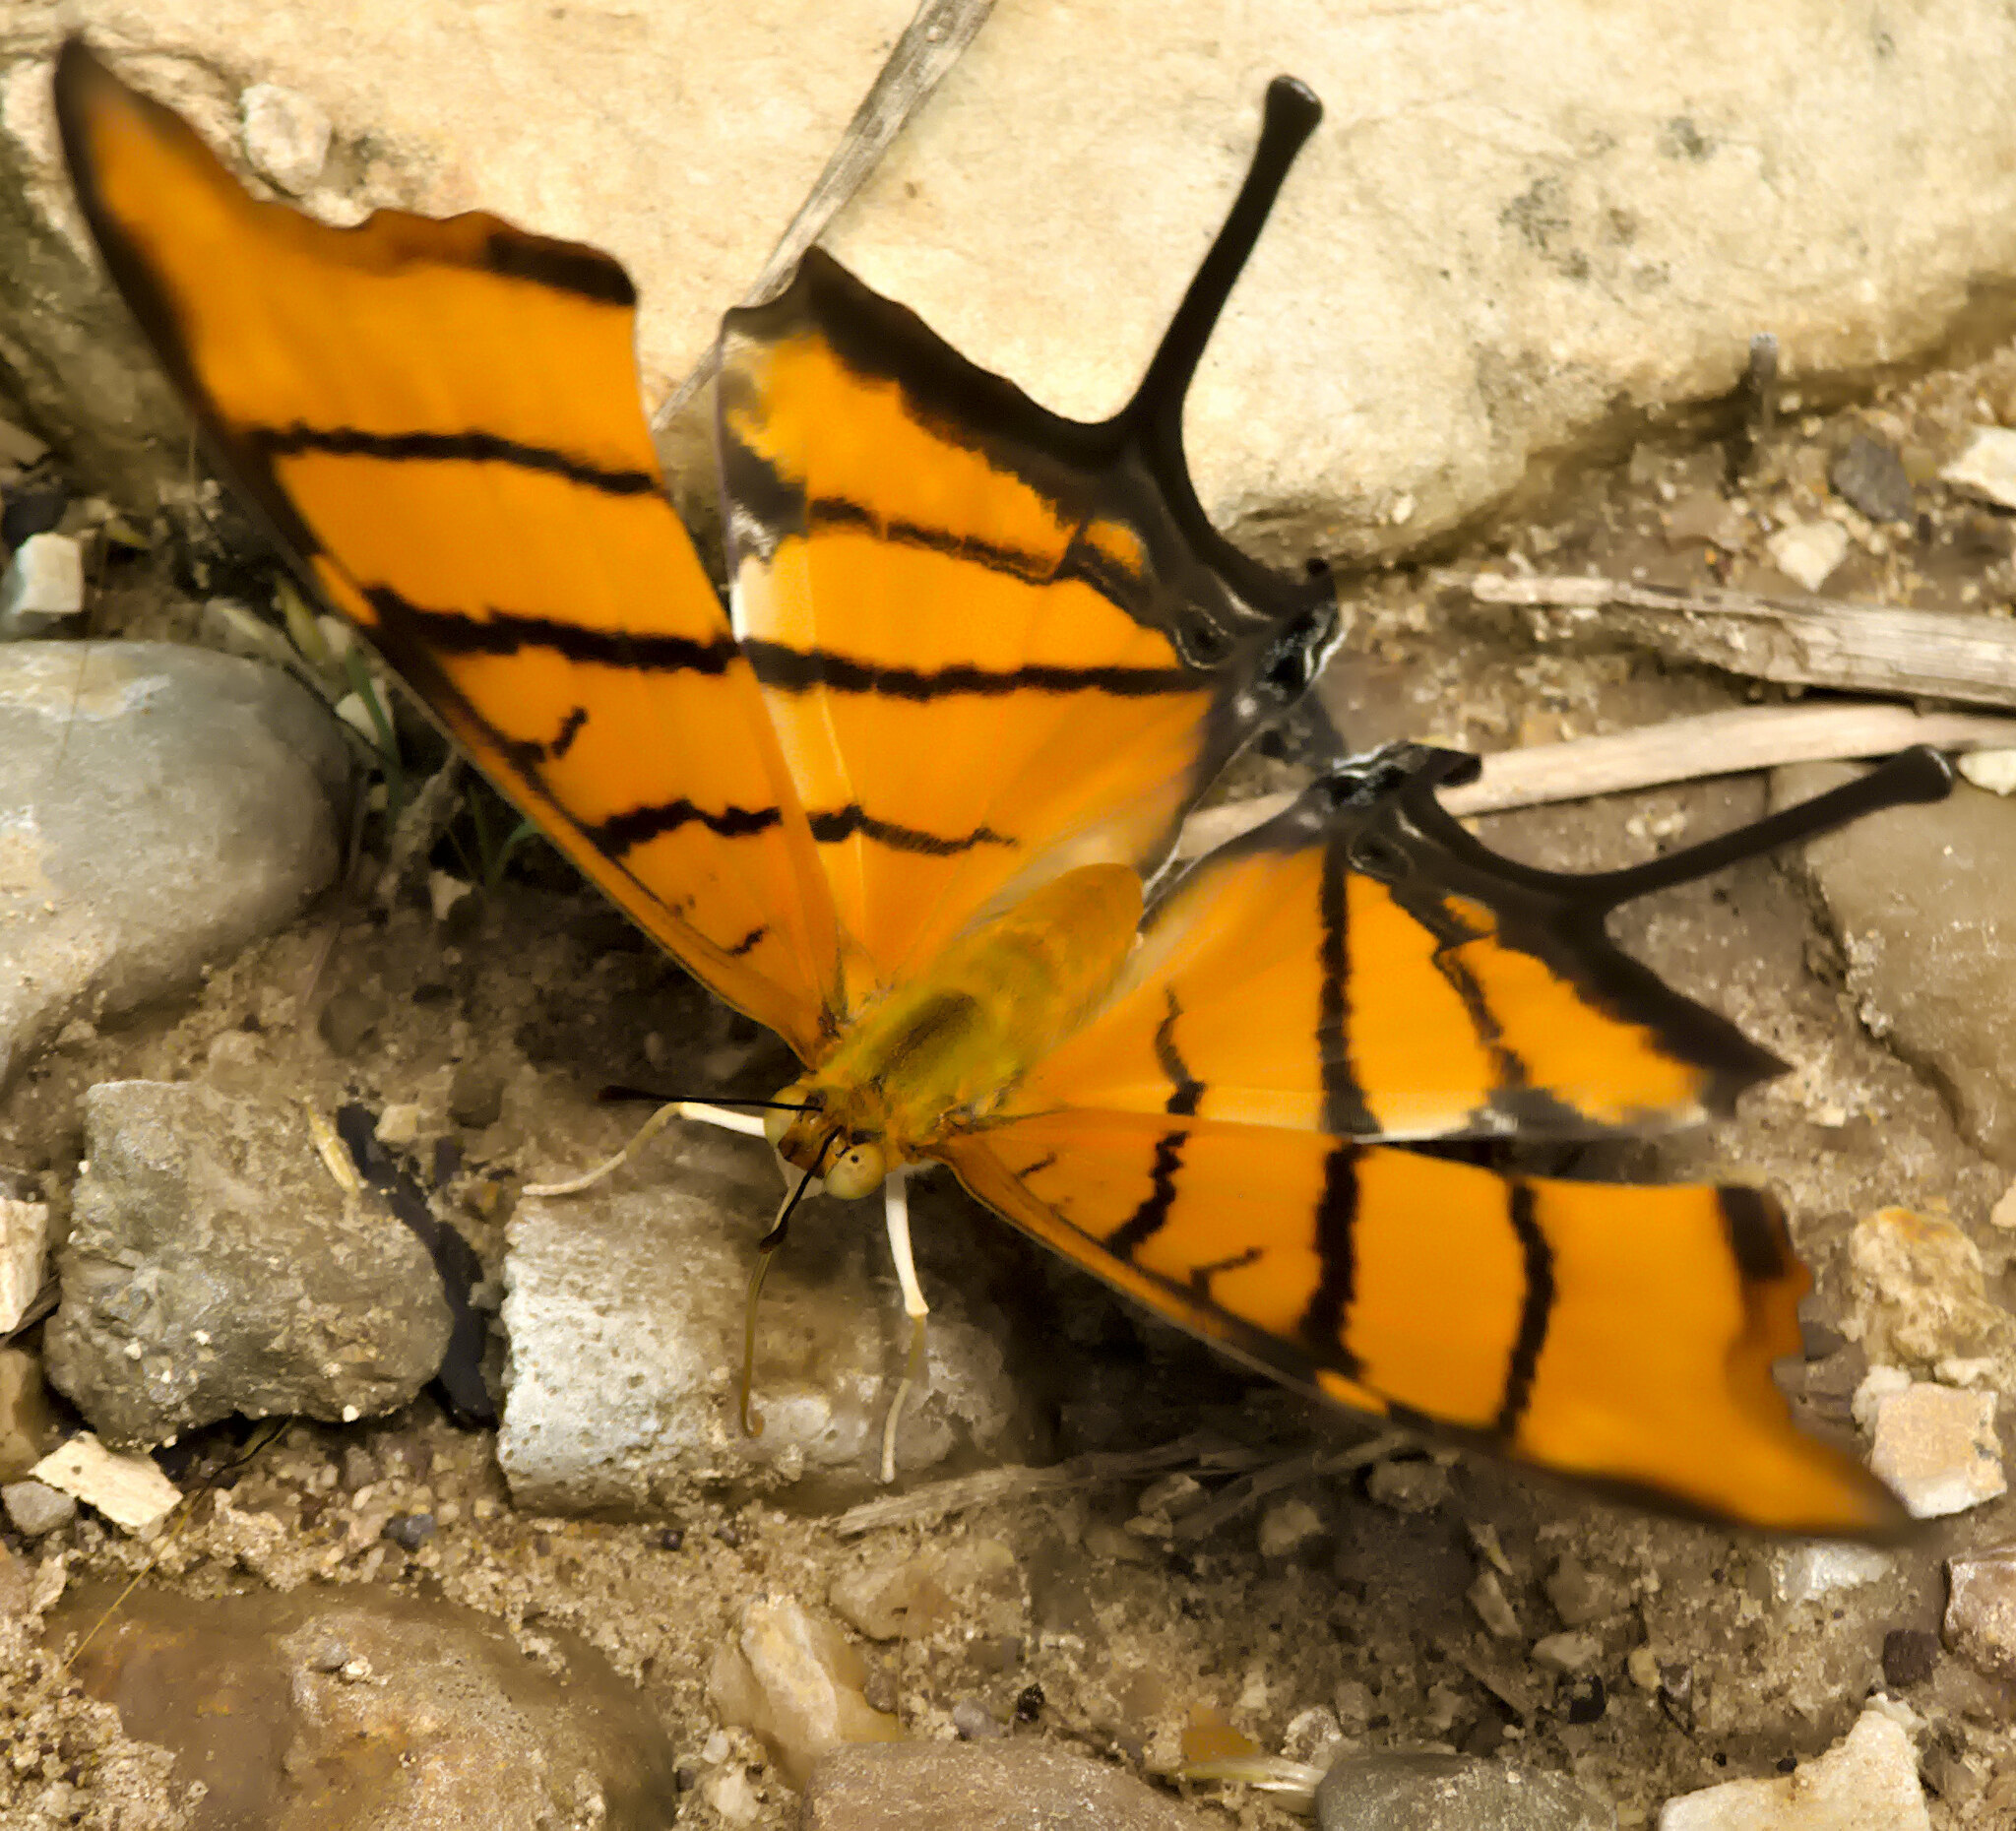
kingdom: Animalia
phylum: Arthropoda
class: Insecta
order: Lepidoptera
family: Nymphalidae
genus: Marpesia
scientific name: Marpesia petreus
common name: Red dagger wing
